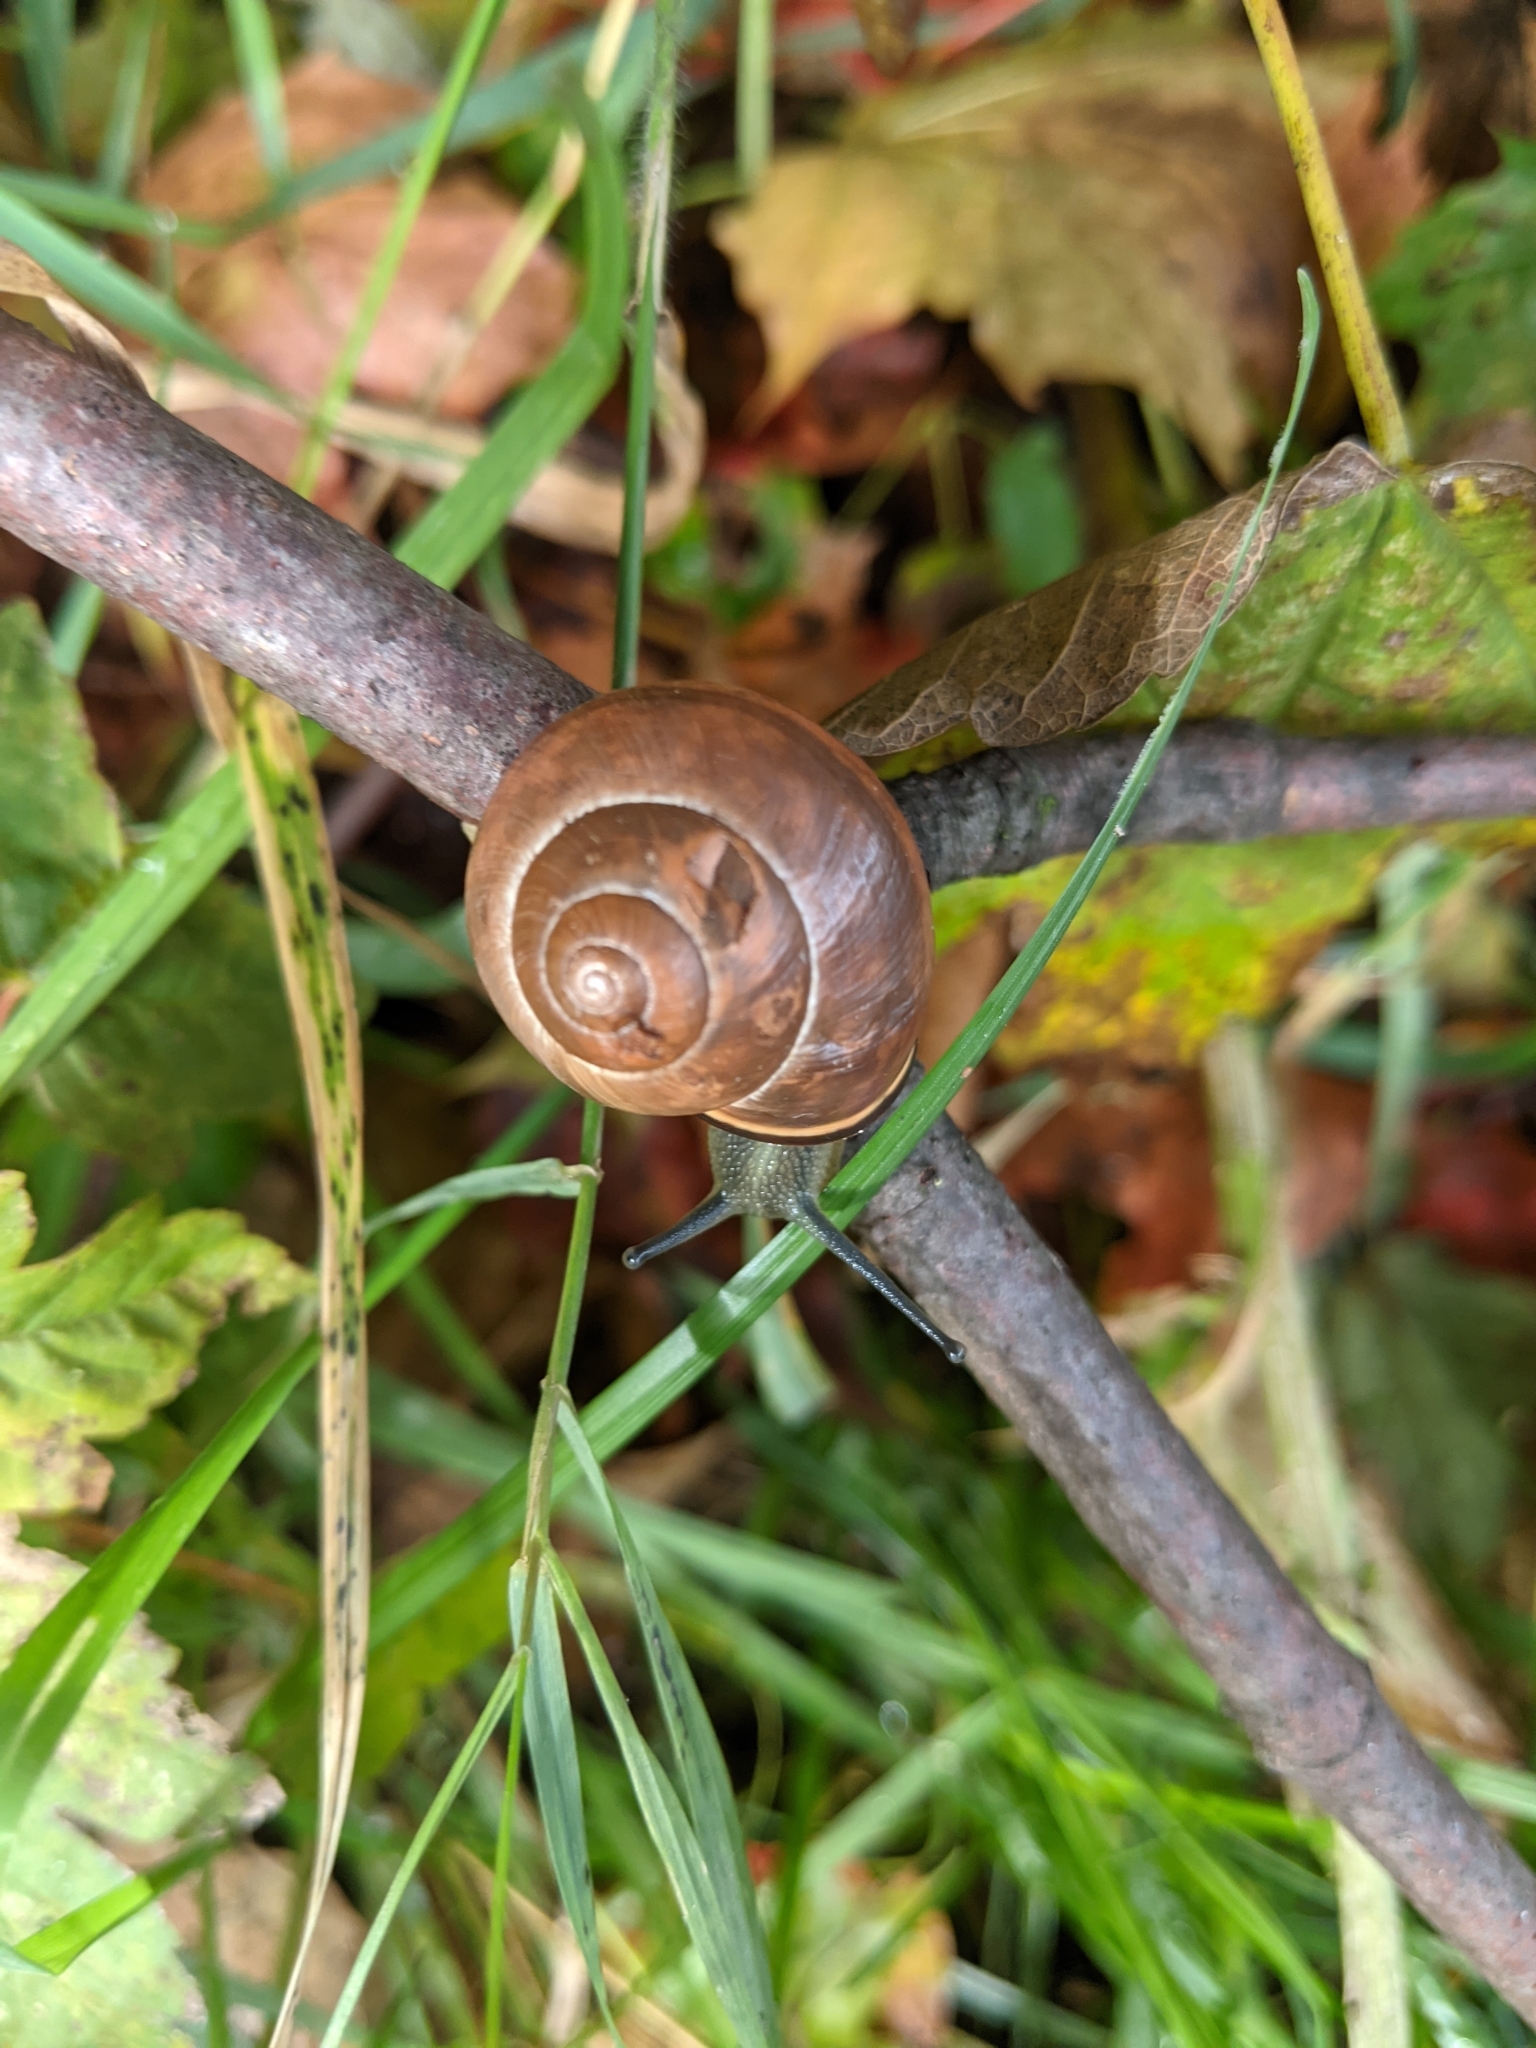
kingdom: Animalia
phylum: Mollusca
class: Gastropoda
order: Stylommatophora
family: Helicidae
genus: Cepaea
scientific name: Cepaea nemoralis
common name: Grovesnail
